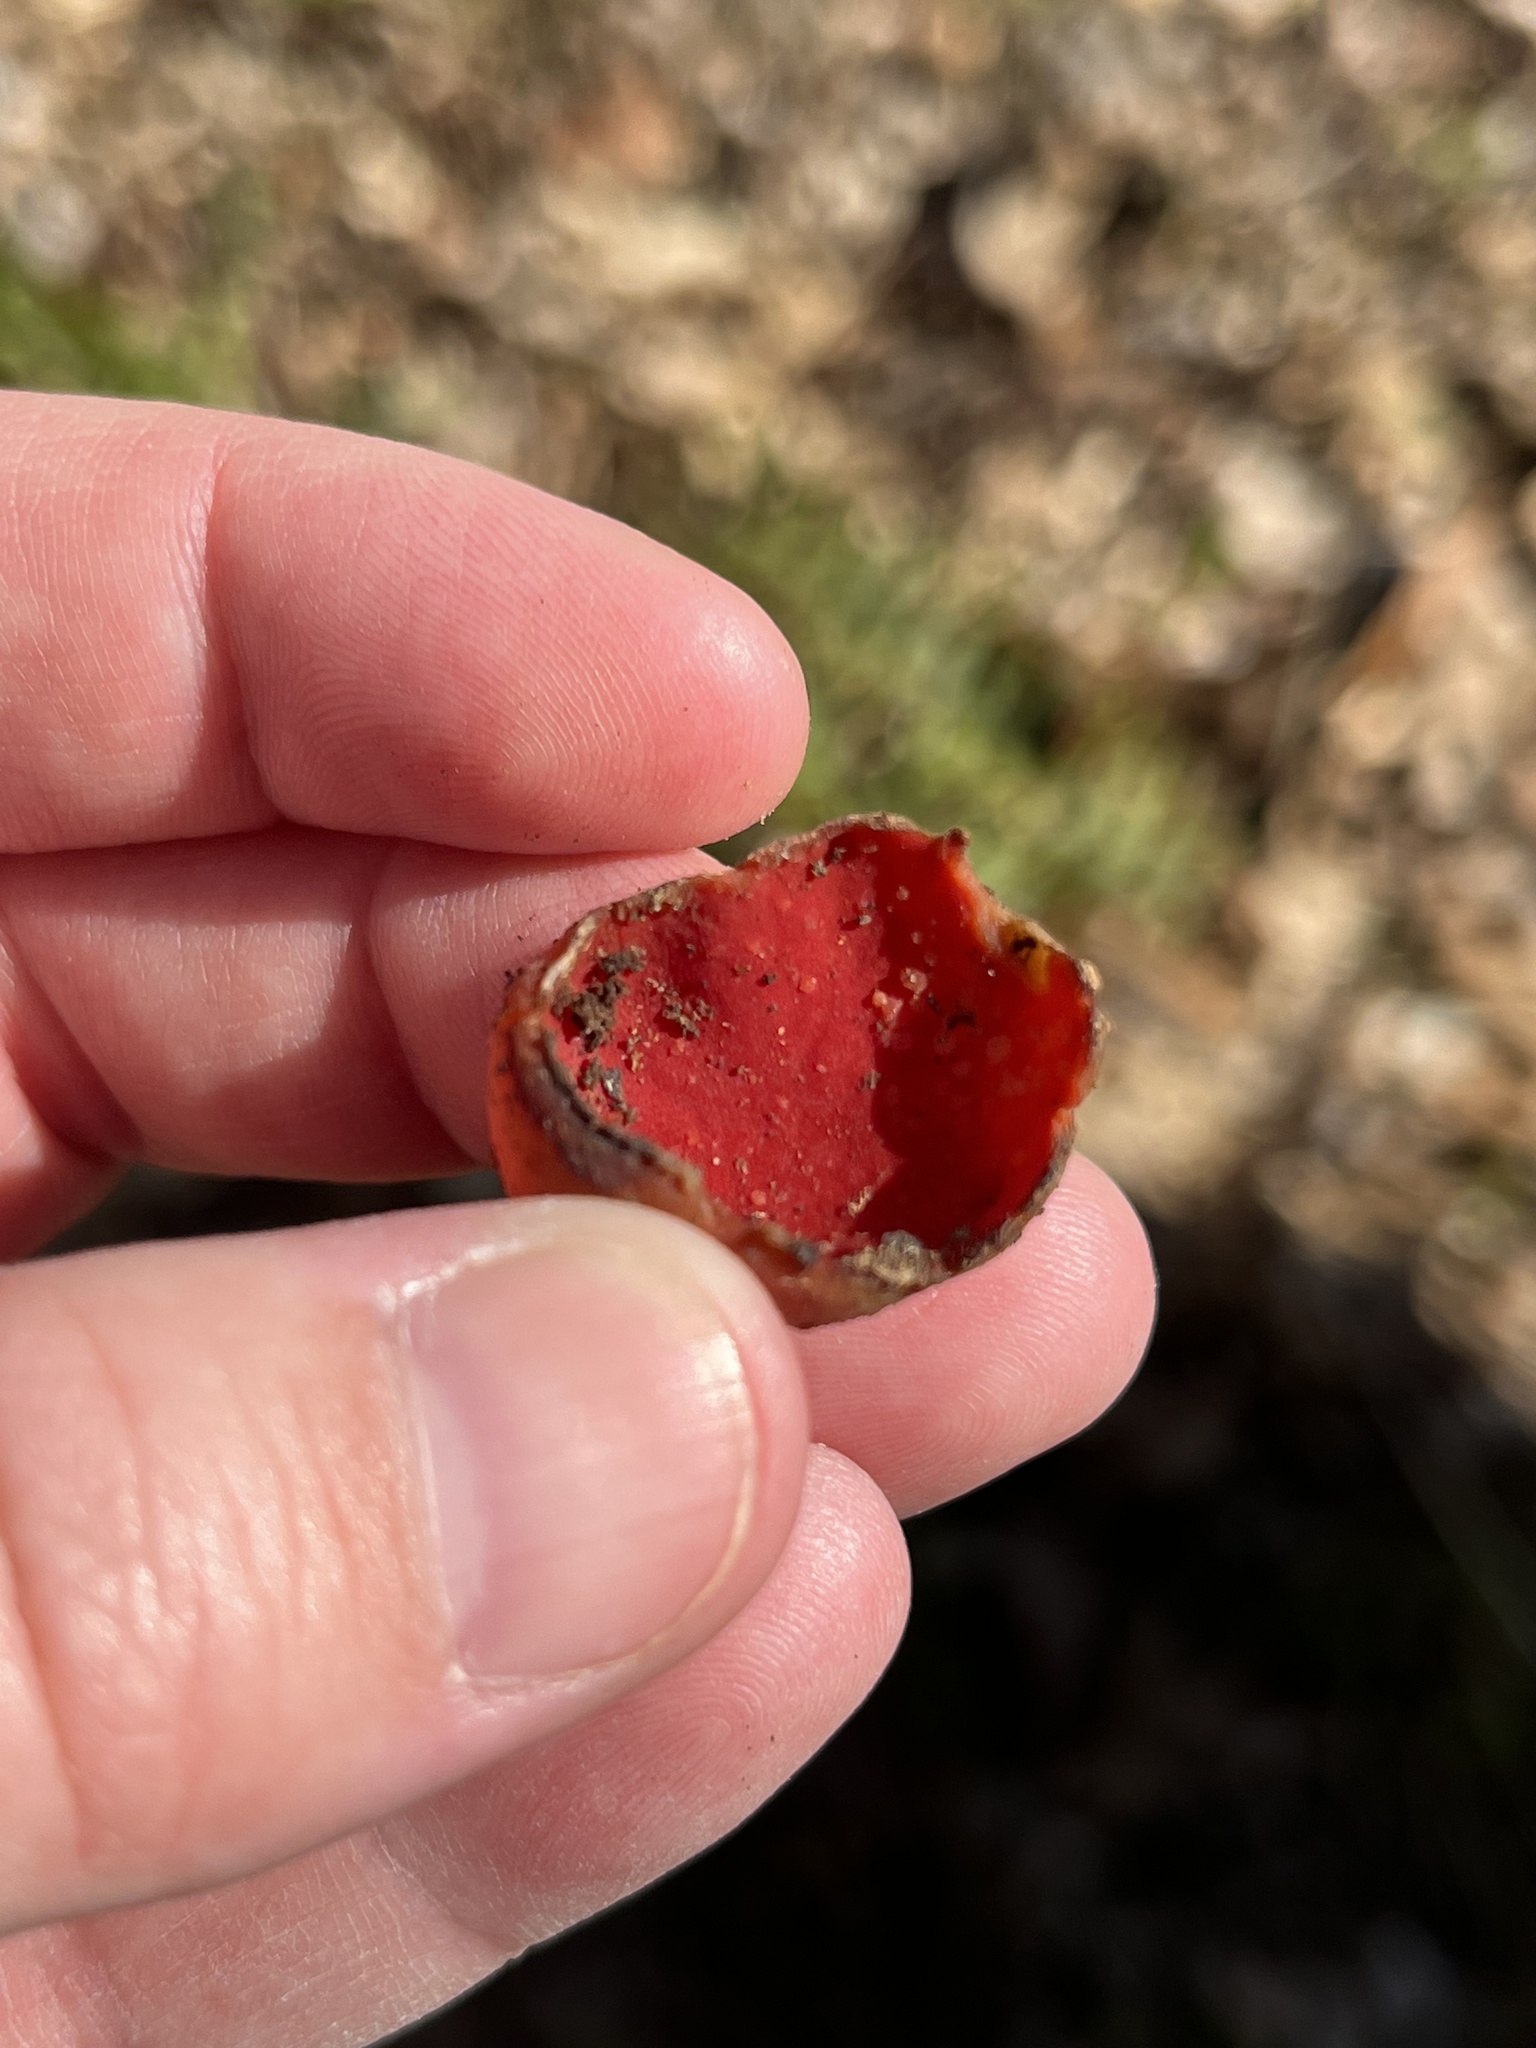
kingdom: Fungi
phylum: Ascomycota
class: Pezizomycetes
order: Pezizales
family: Sarcoscyphaceae
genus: Sarcoscypha
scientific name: Sarcoscypha dudleyi
